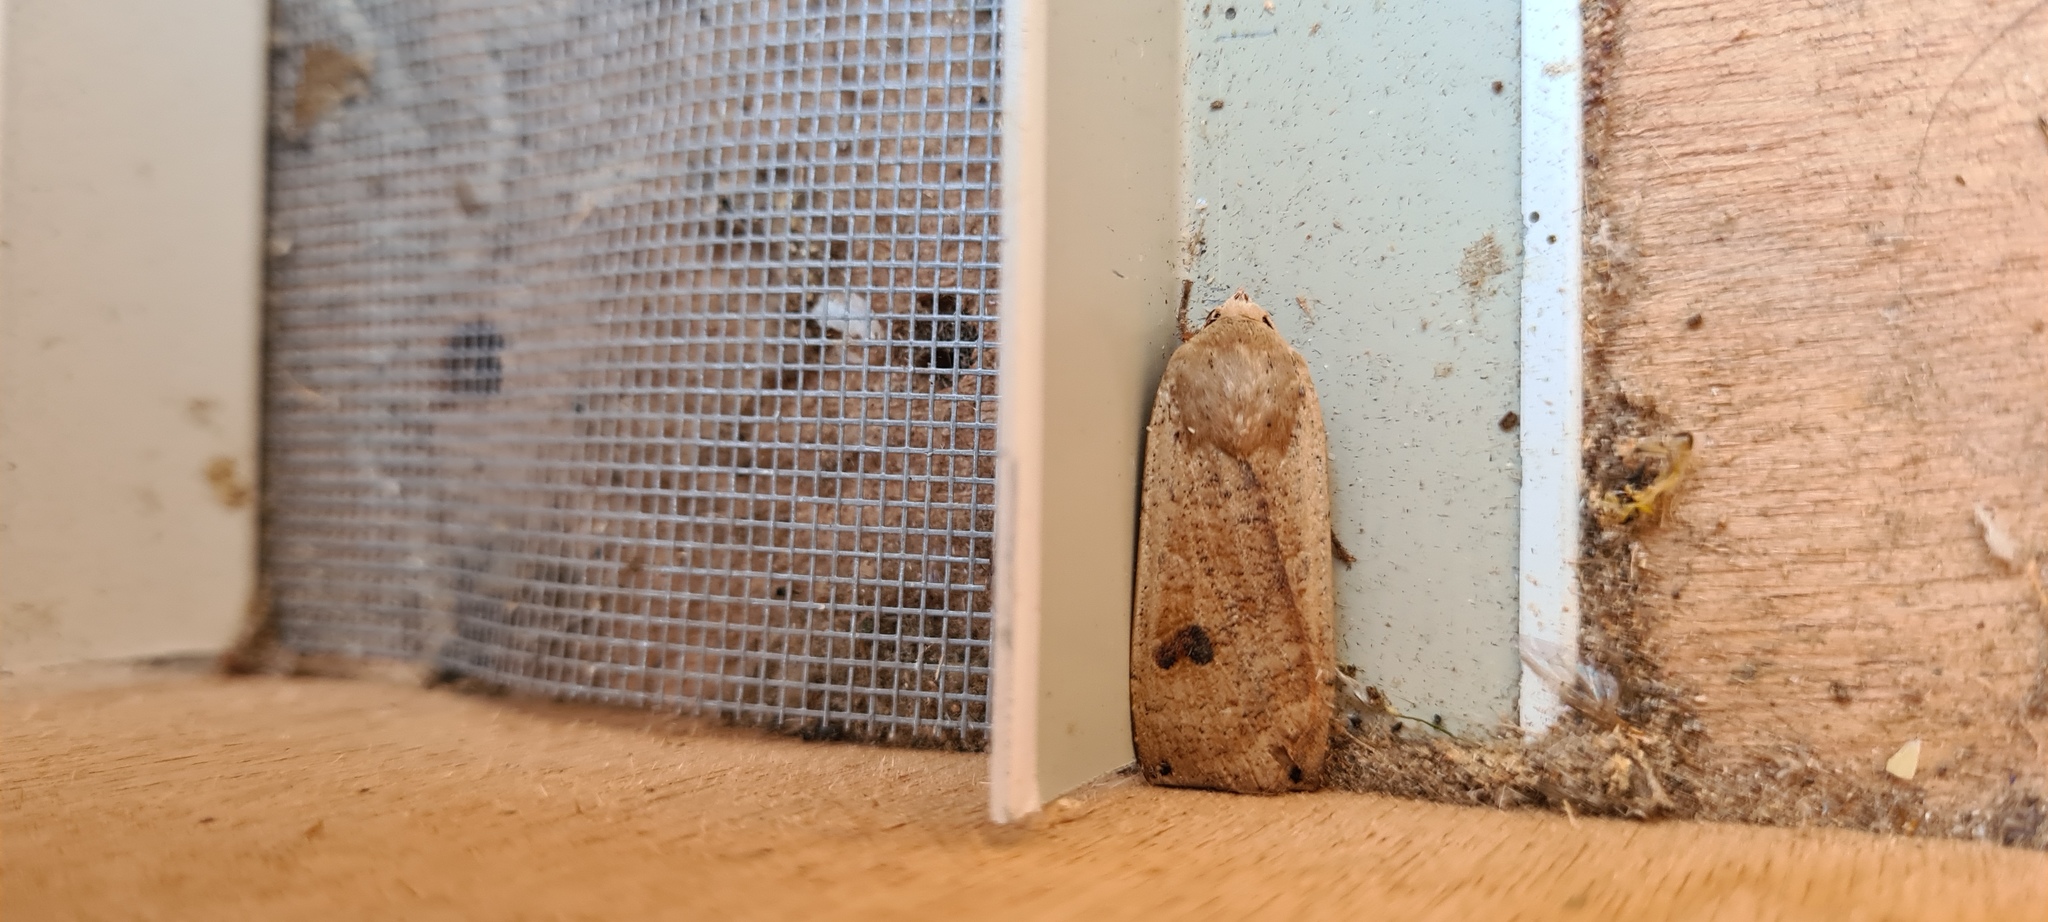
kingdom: Animalia
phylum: Arthropoda
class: Insecta
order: Lepidoptera
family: Noctuidae
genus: Noctua
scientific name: Noctua pronuba
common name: Large yellow underwing
